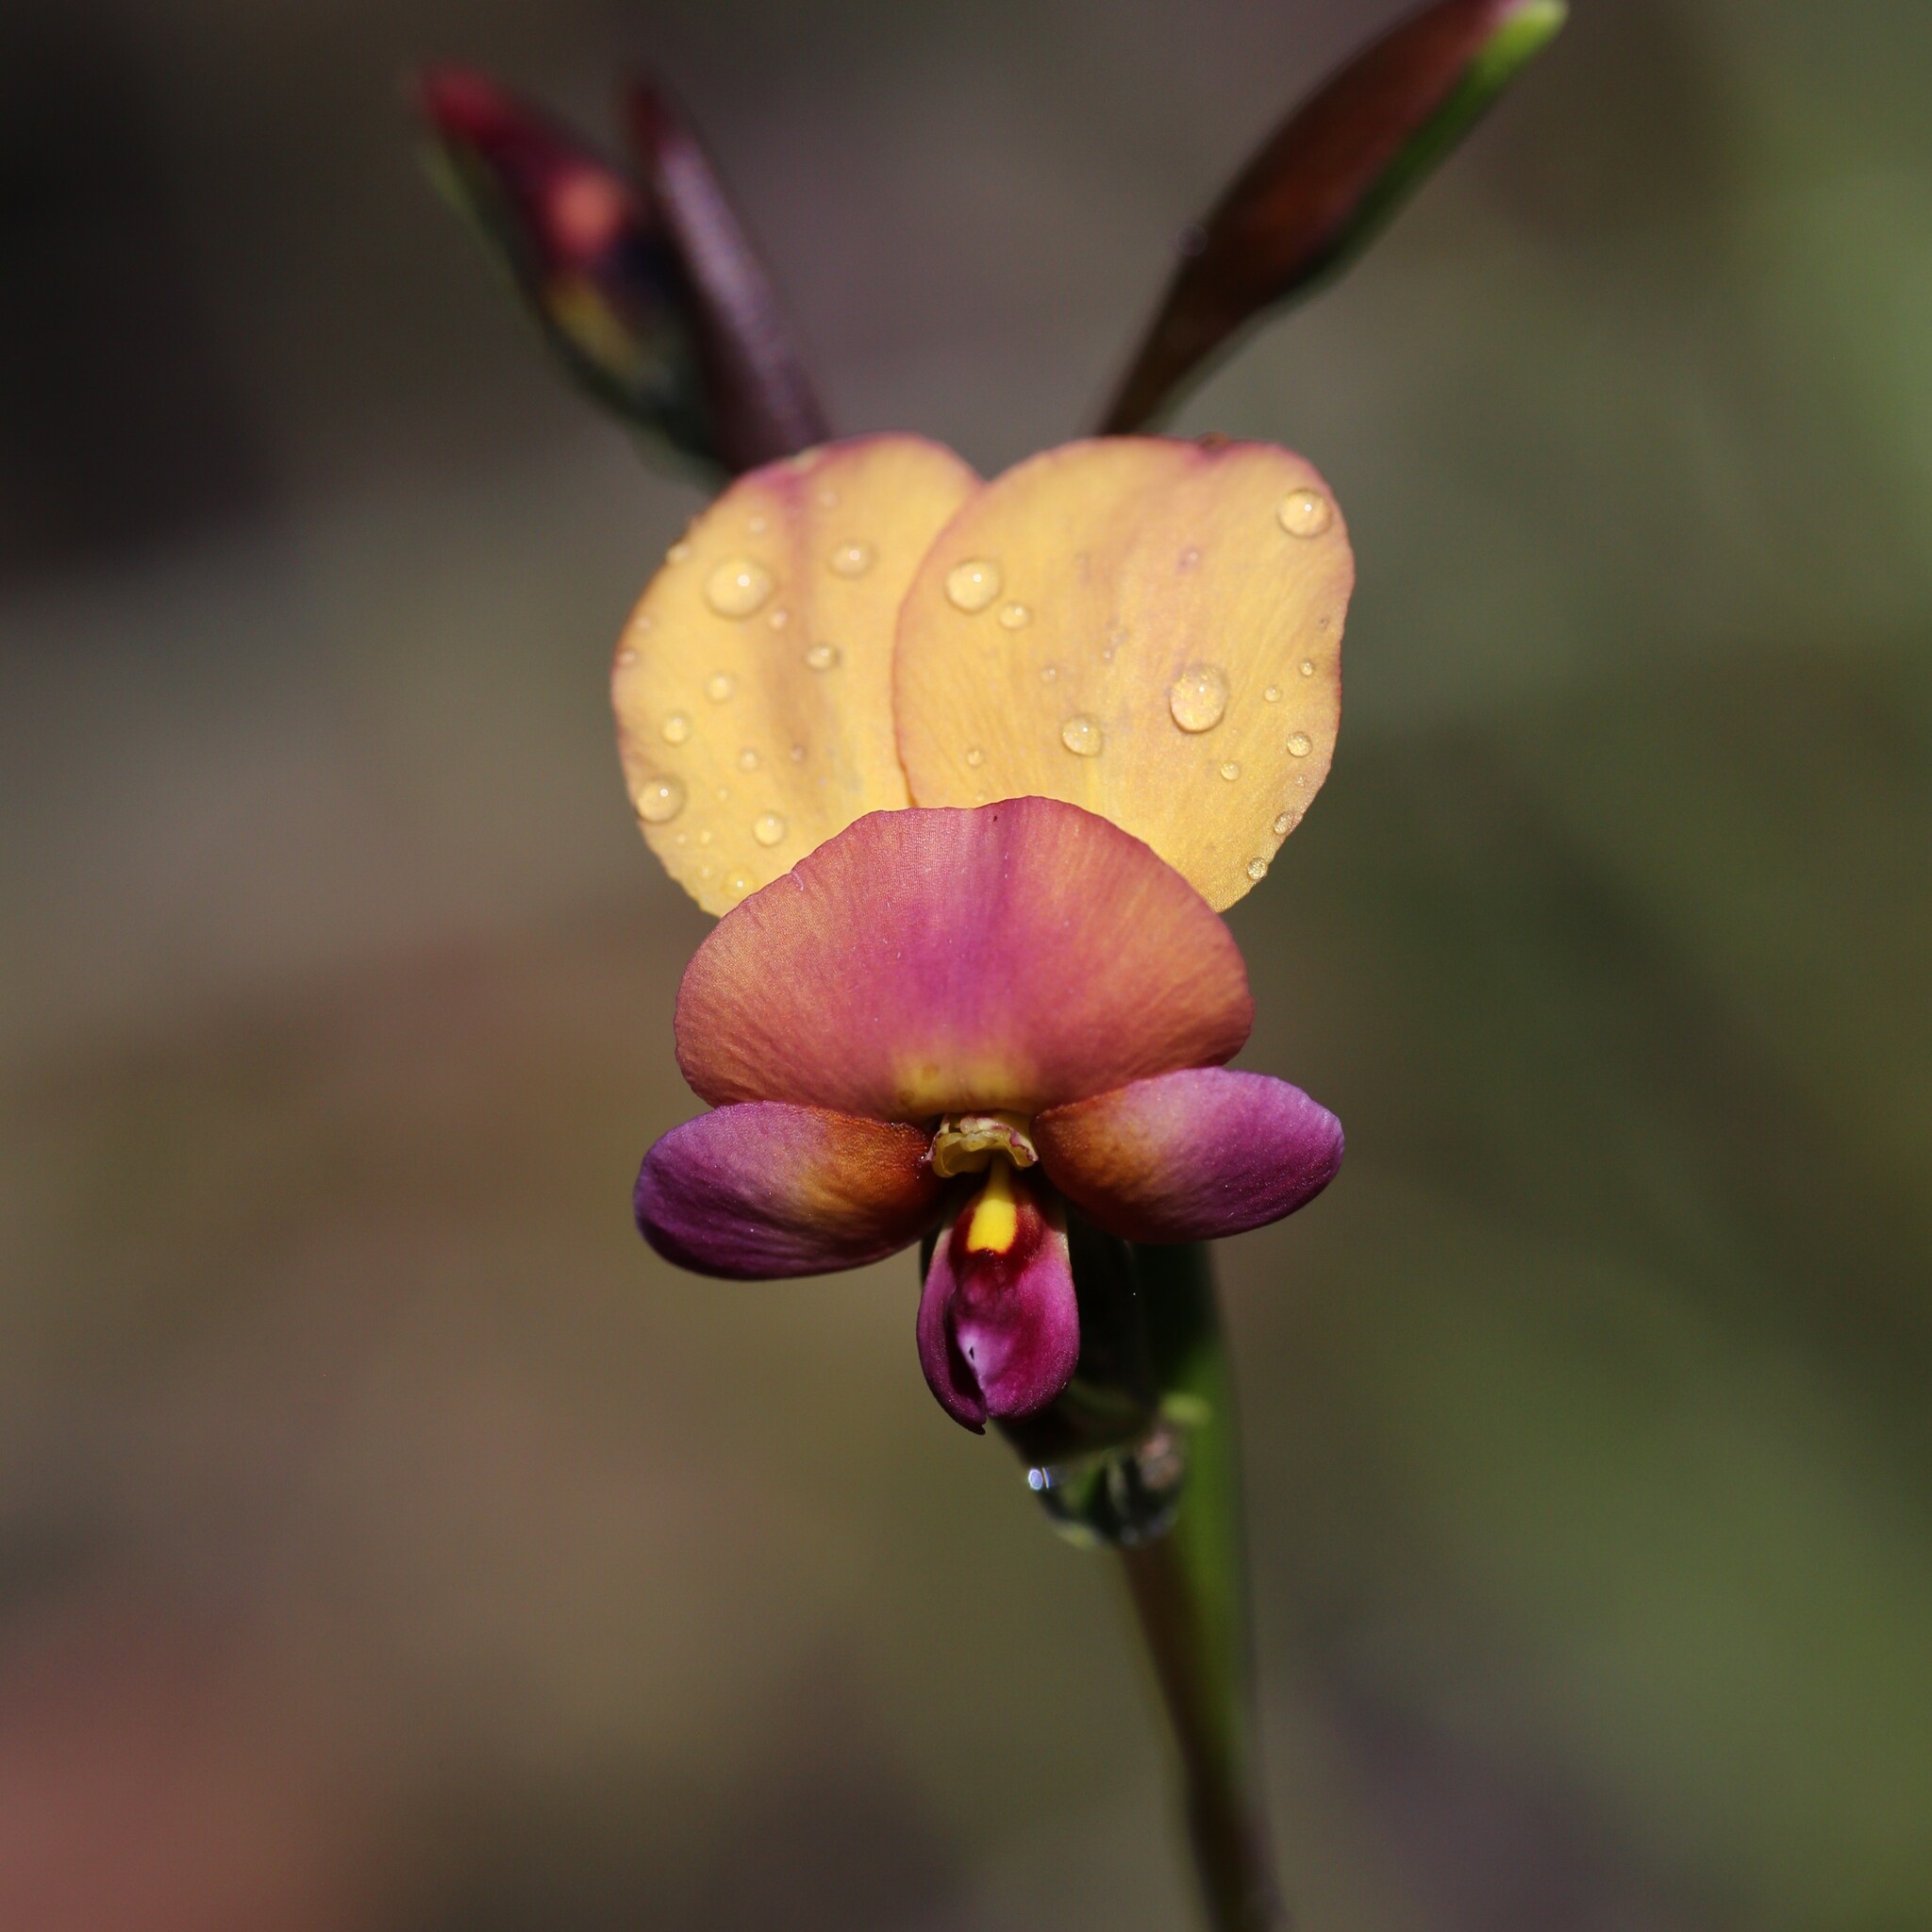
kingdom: Plantae
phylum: Tracheophyta
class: Liliopsida
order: Asparagales
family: Orchidaceae
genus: Diuris
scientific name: Diuris longifolia
